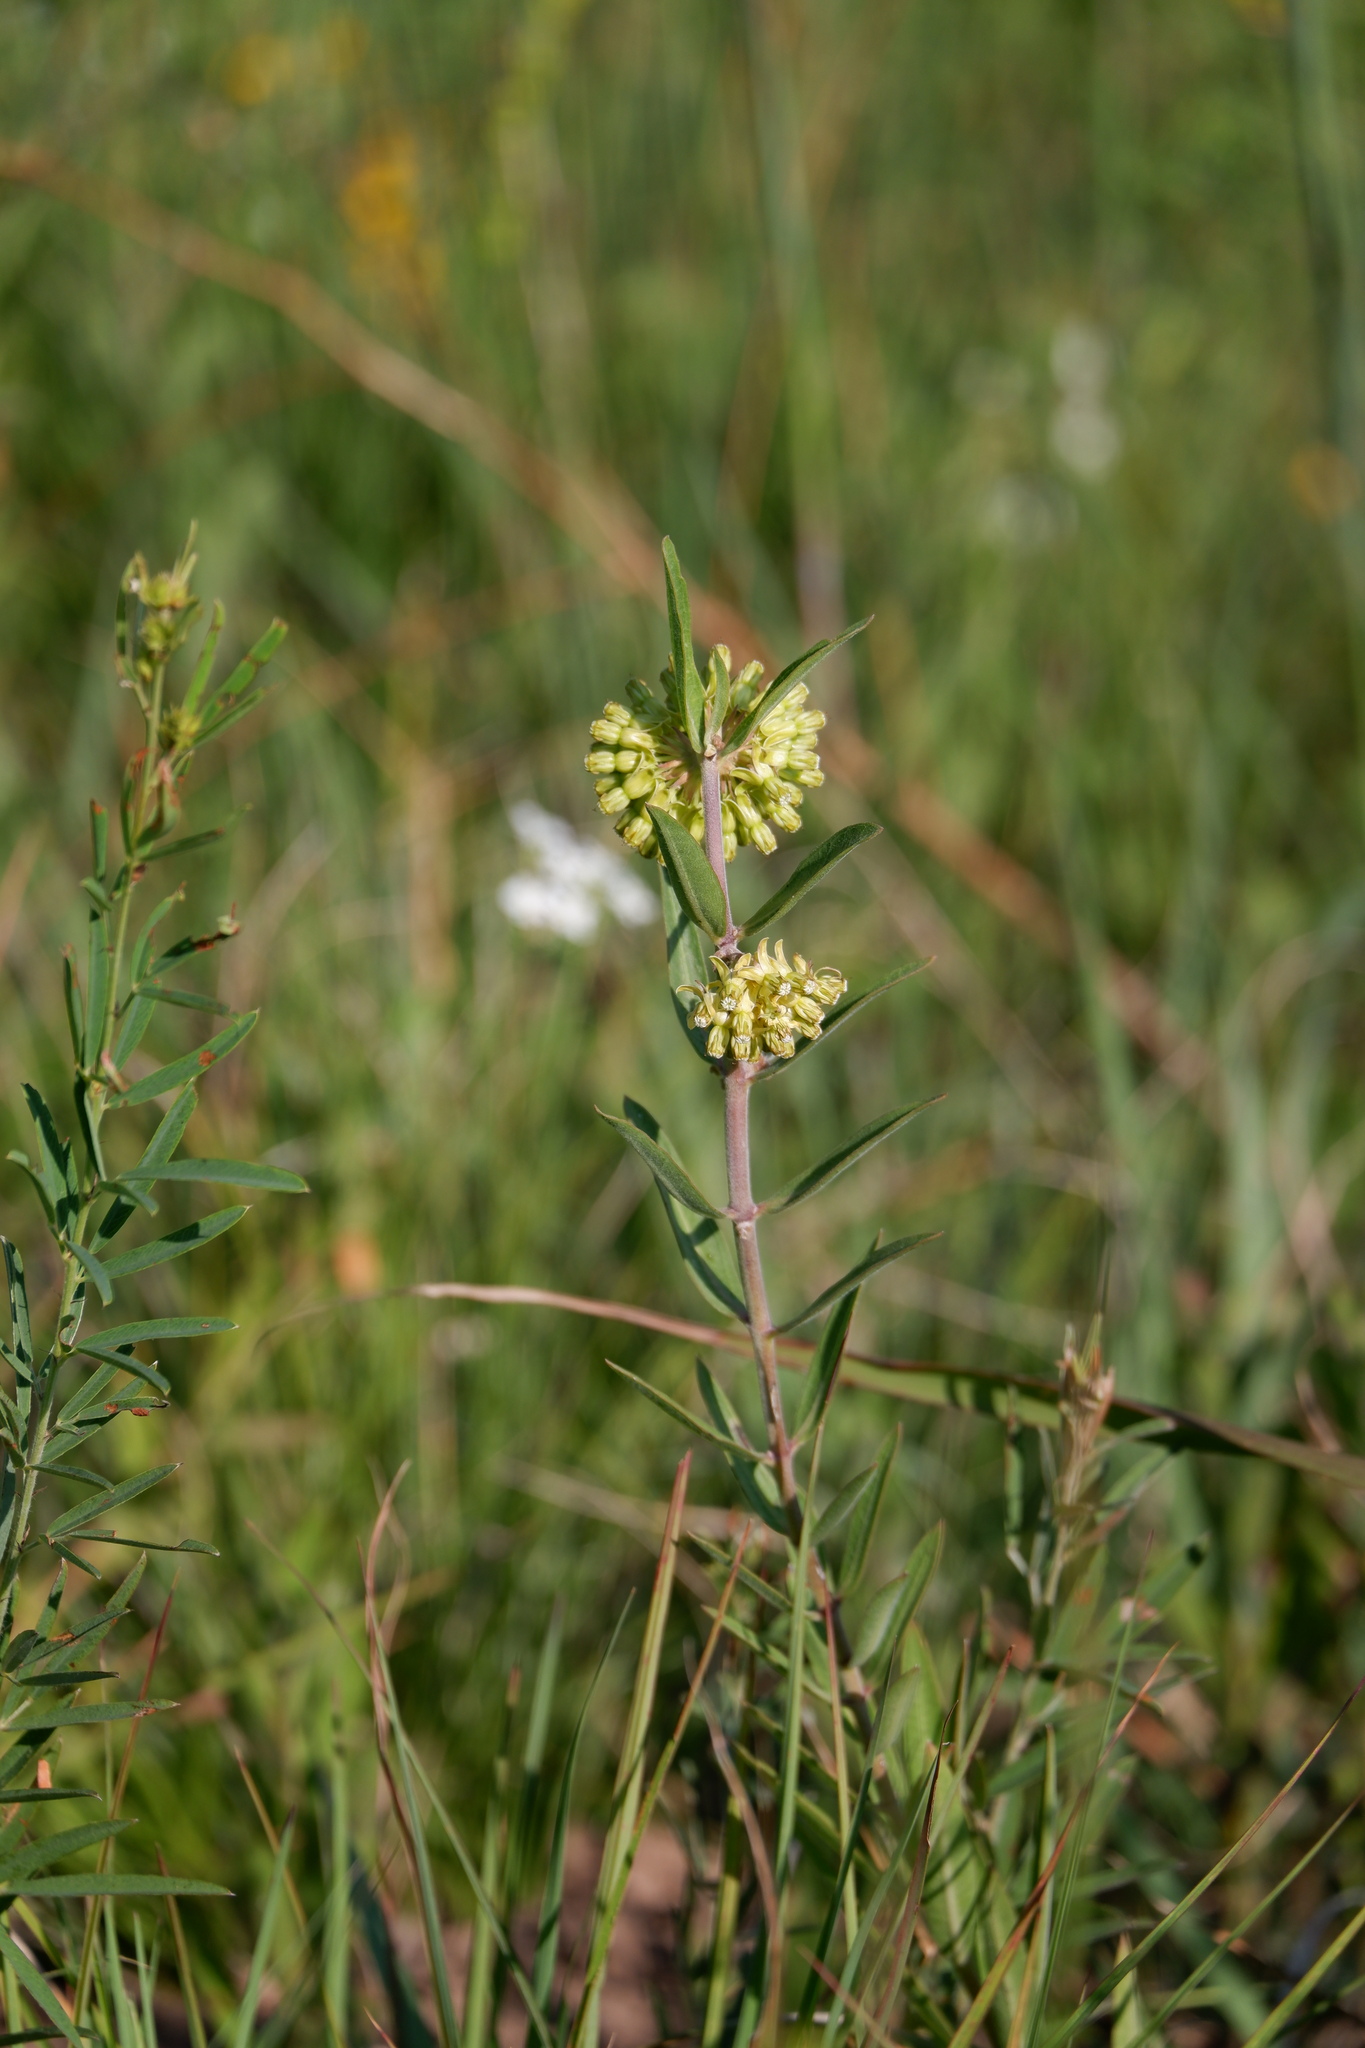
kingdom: Plantae
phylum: Tracheophyta
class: Magnoliopsida
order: Gentianales
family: Apocynaceae
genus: Asclepias
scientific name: Asclepias viridiflora
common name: Green comet milkweed
